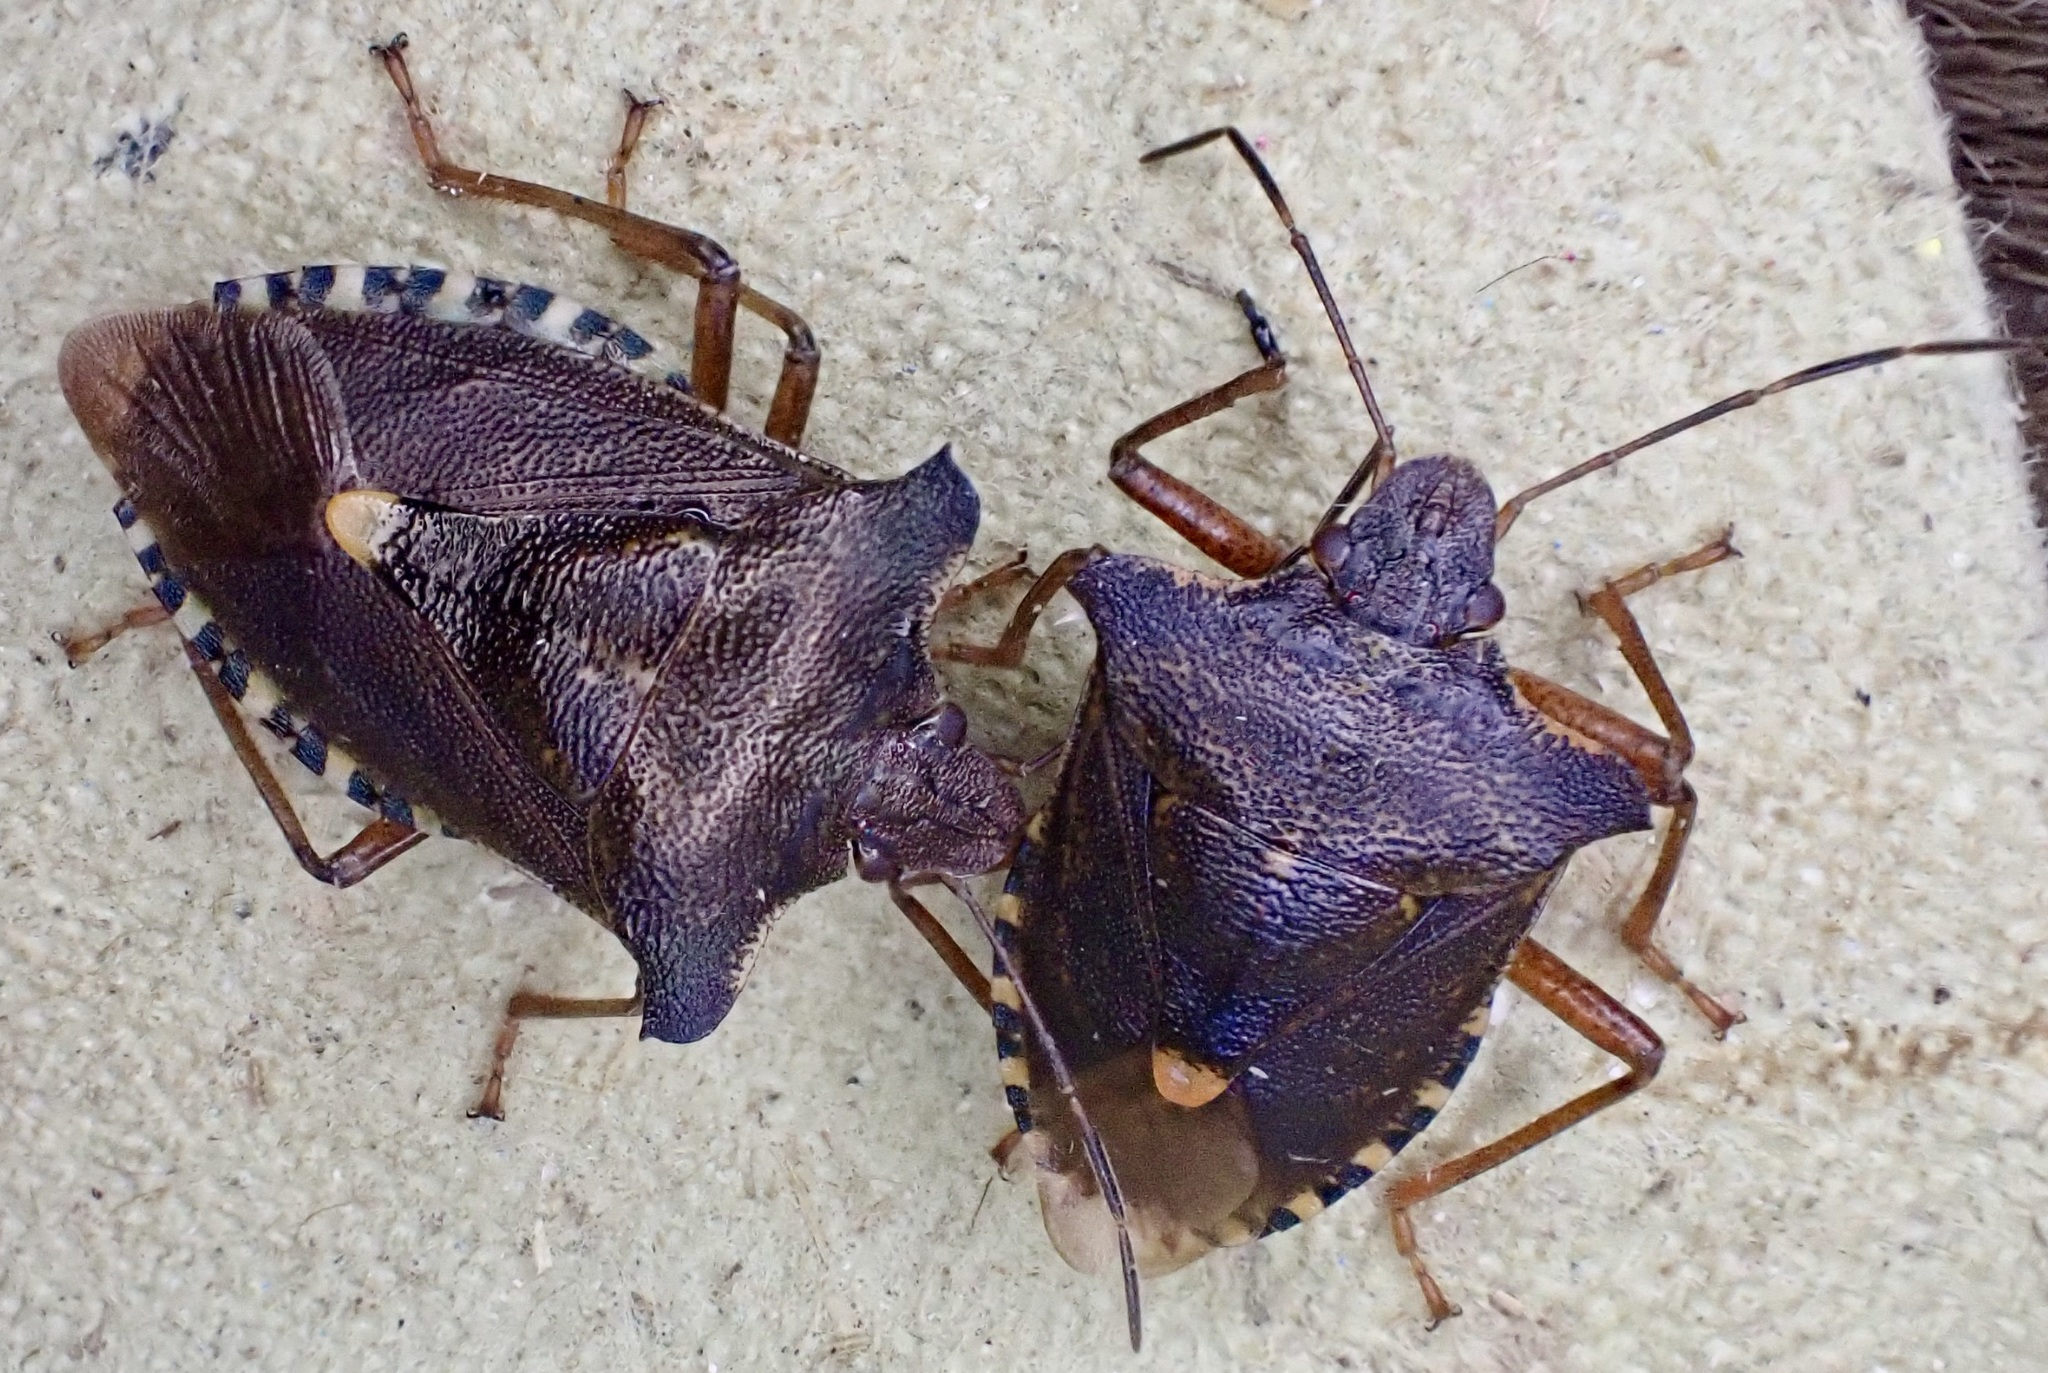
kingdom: Animalia
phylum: Arthropoda
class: Insecta
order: Hemiptera
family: Pentatomidae
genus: Pentatoma
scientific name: Pentatoma rufipes
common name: Forest bug
